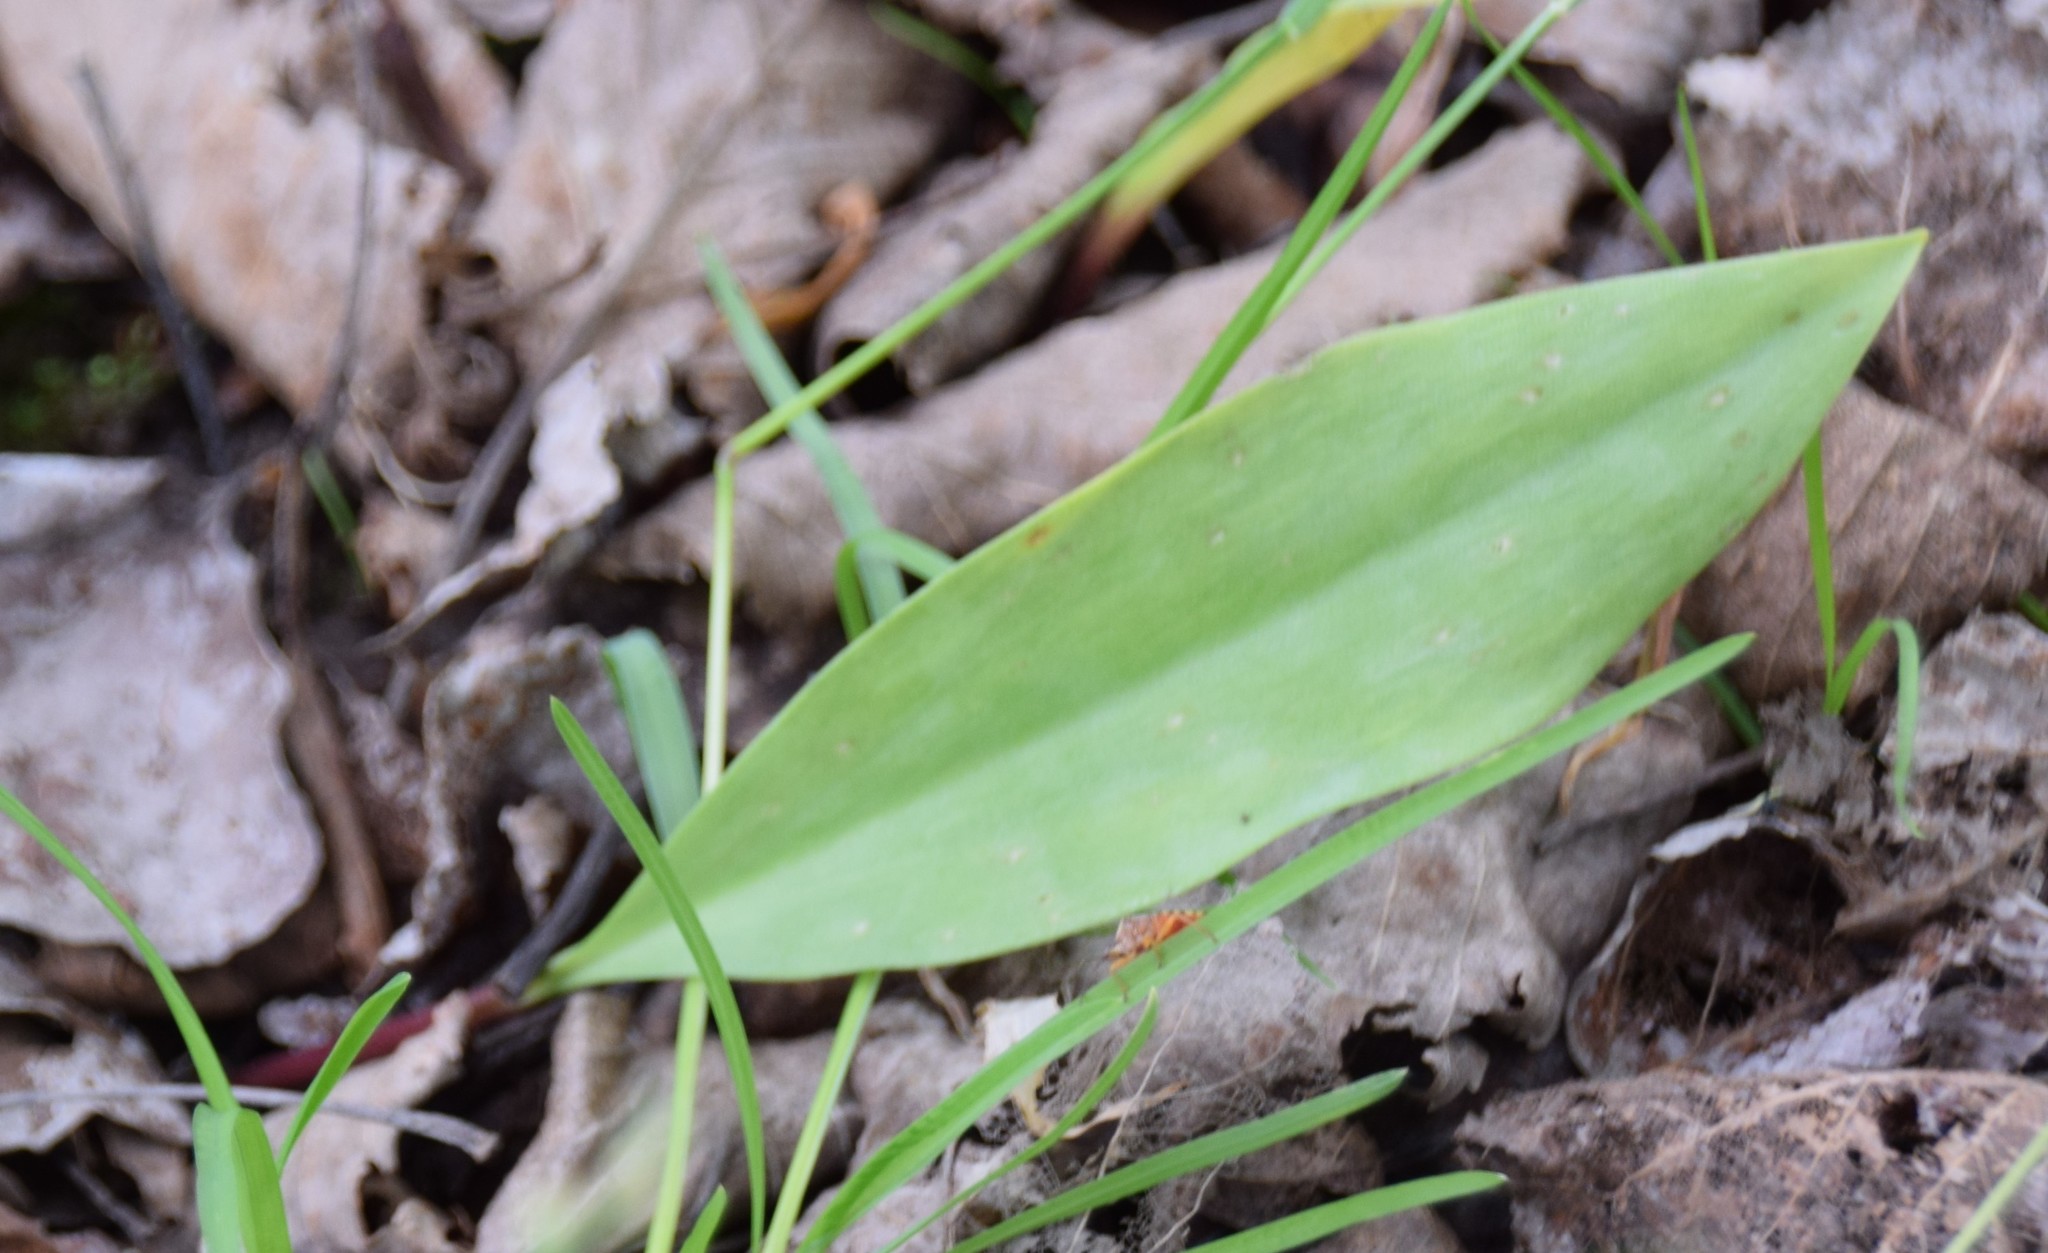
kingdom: Plantae
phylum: Tracheophyta
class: Liliopsida
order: Liliales
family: Liliaceae
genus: Erythronium
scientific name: Erythronium americanum
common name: Yellow adder's-tongue
